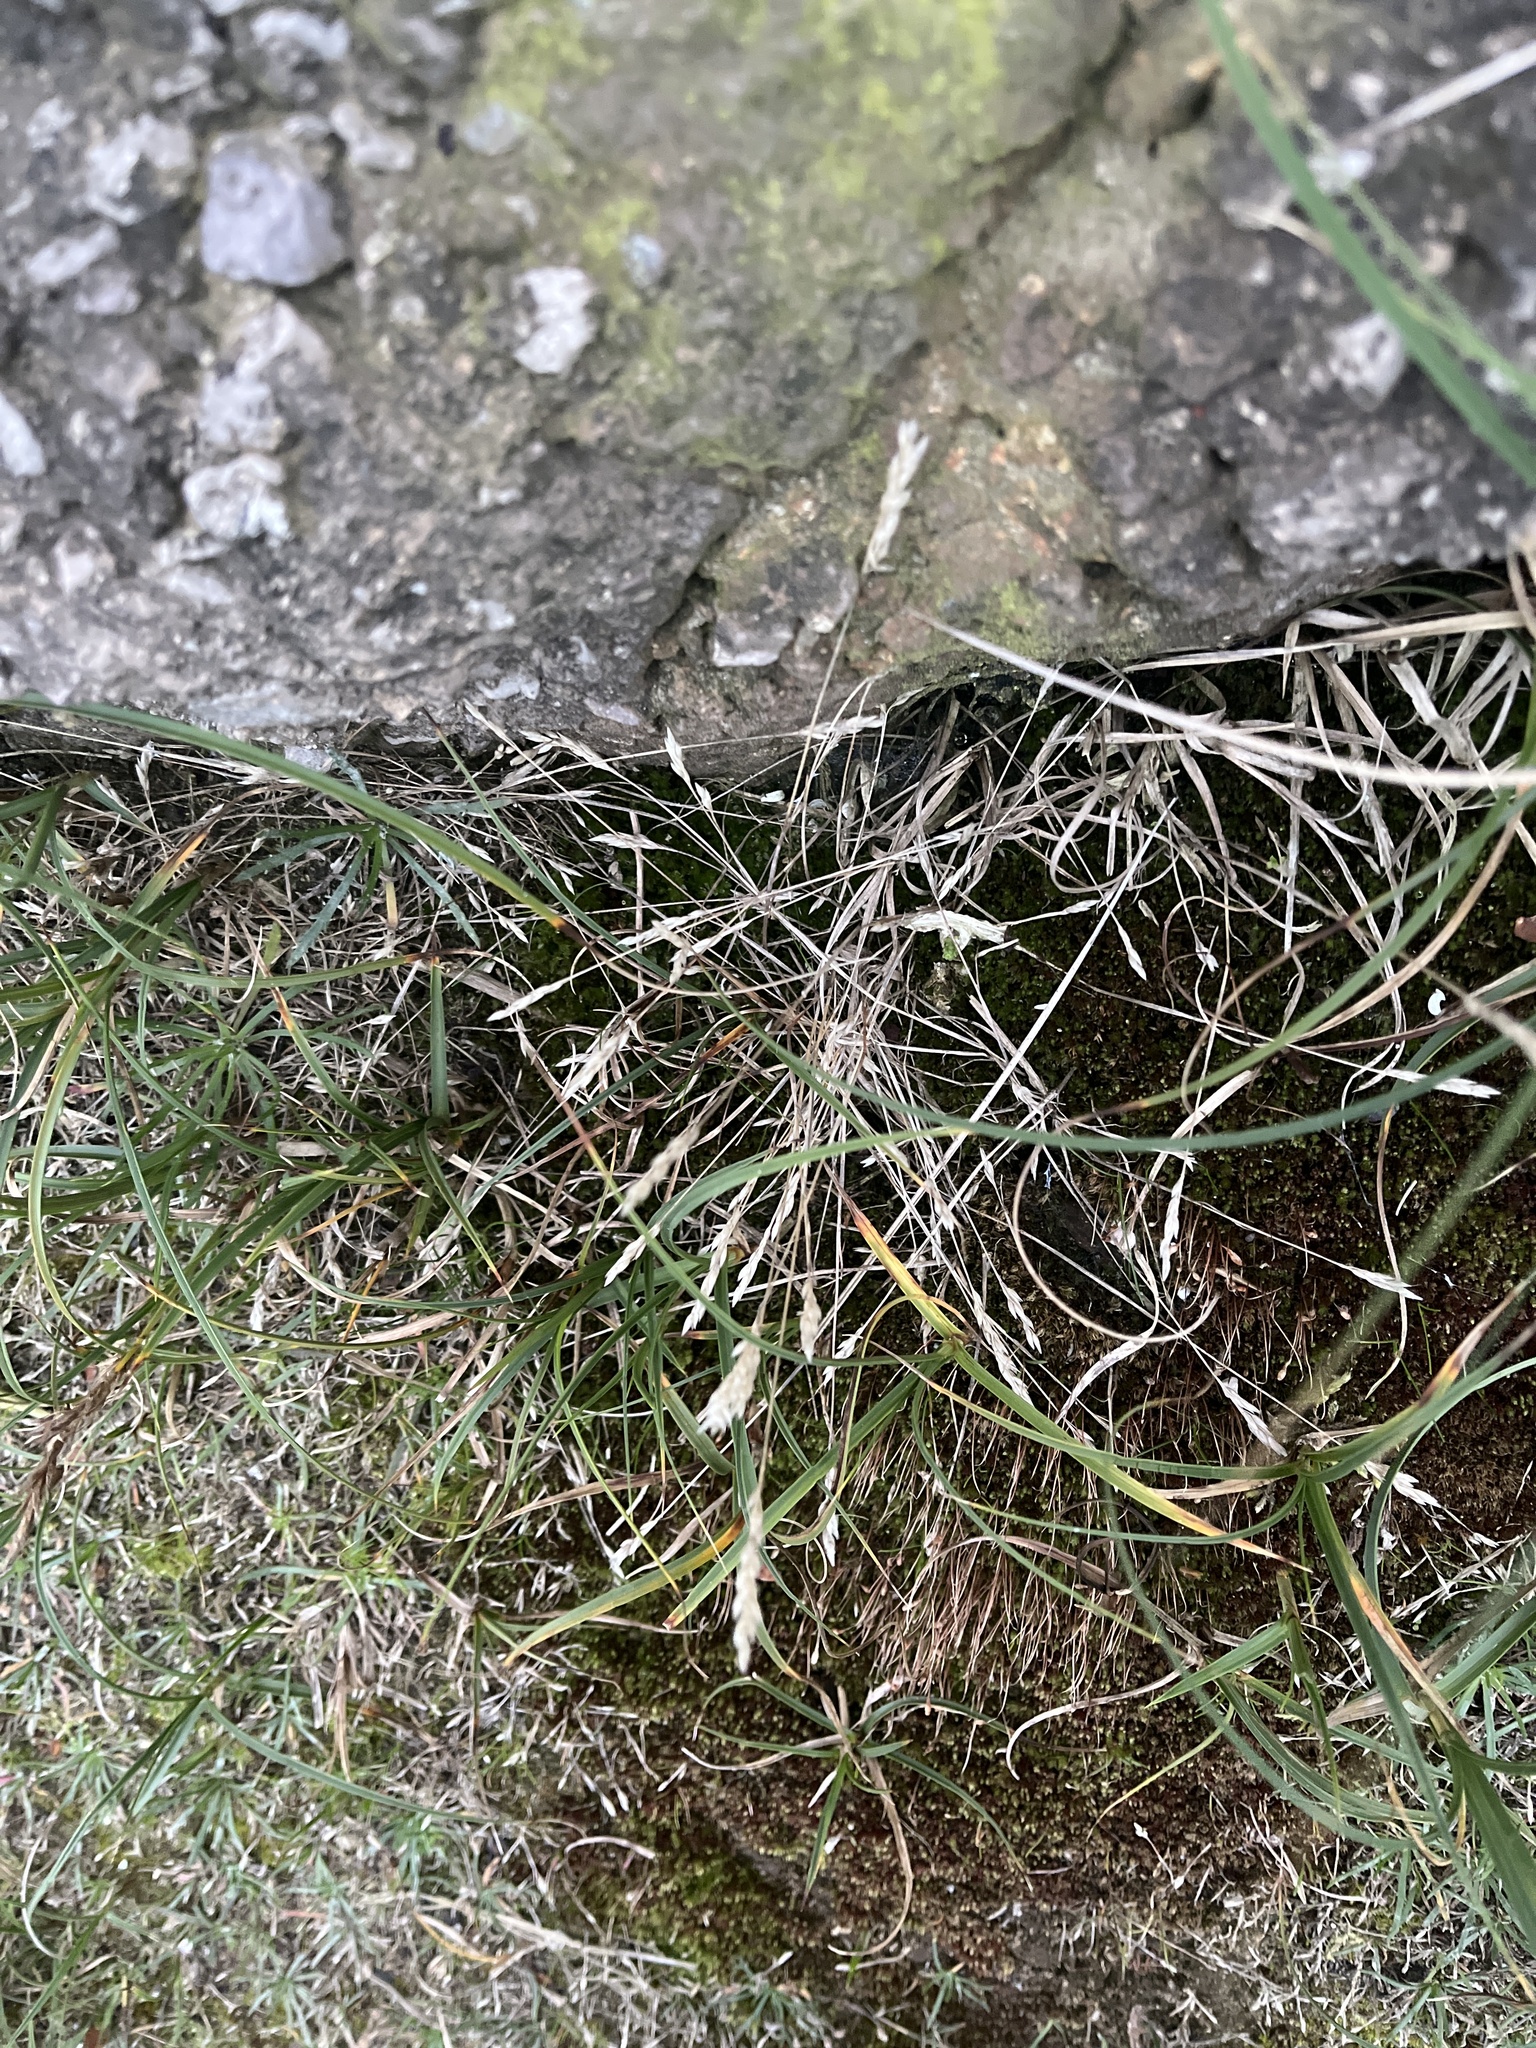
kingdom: Plantae
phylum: Tracheophyta
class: Liliopsida
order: Poales
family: Poaceae
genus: Aira
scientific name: Aira praecox
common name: Early hair-grass
